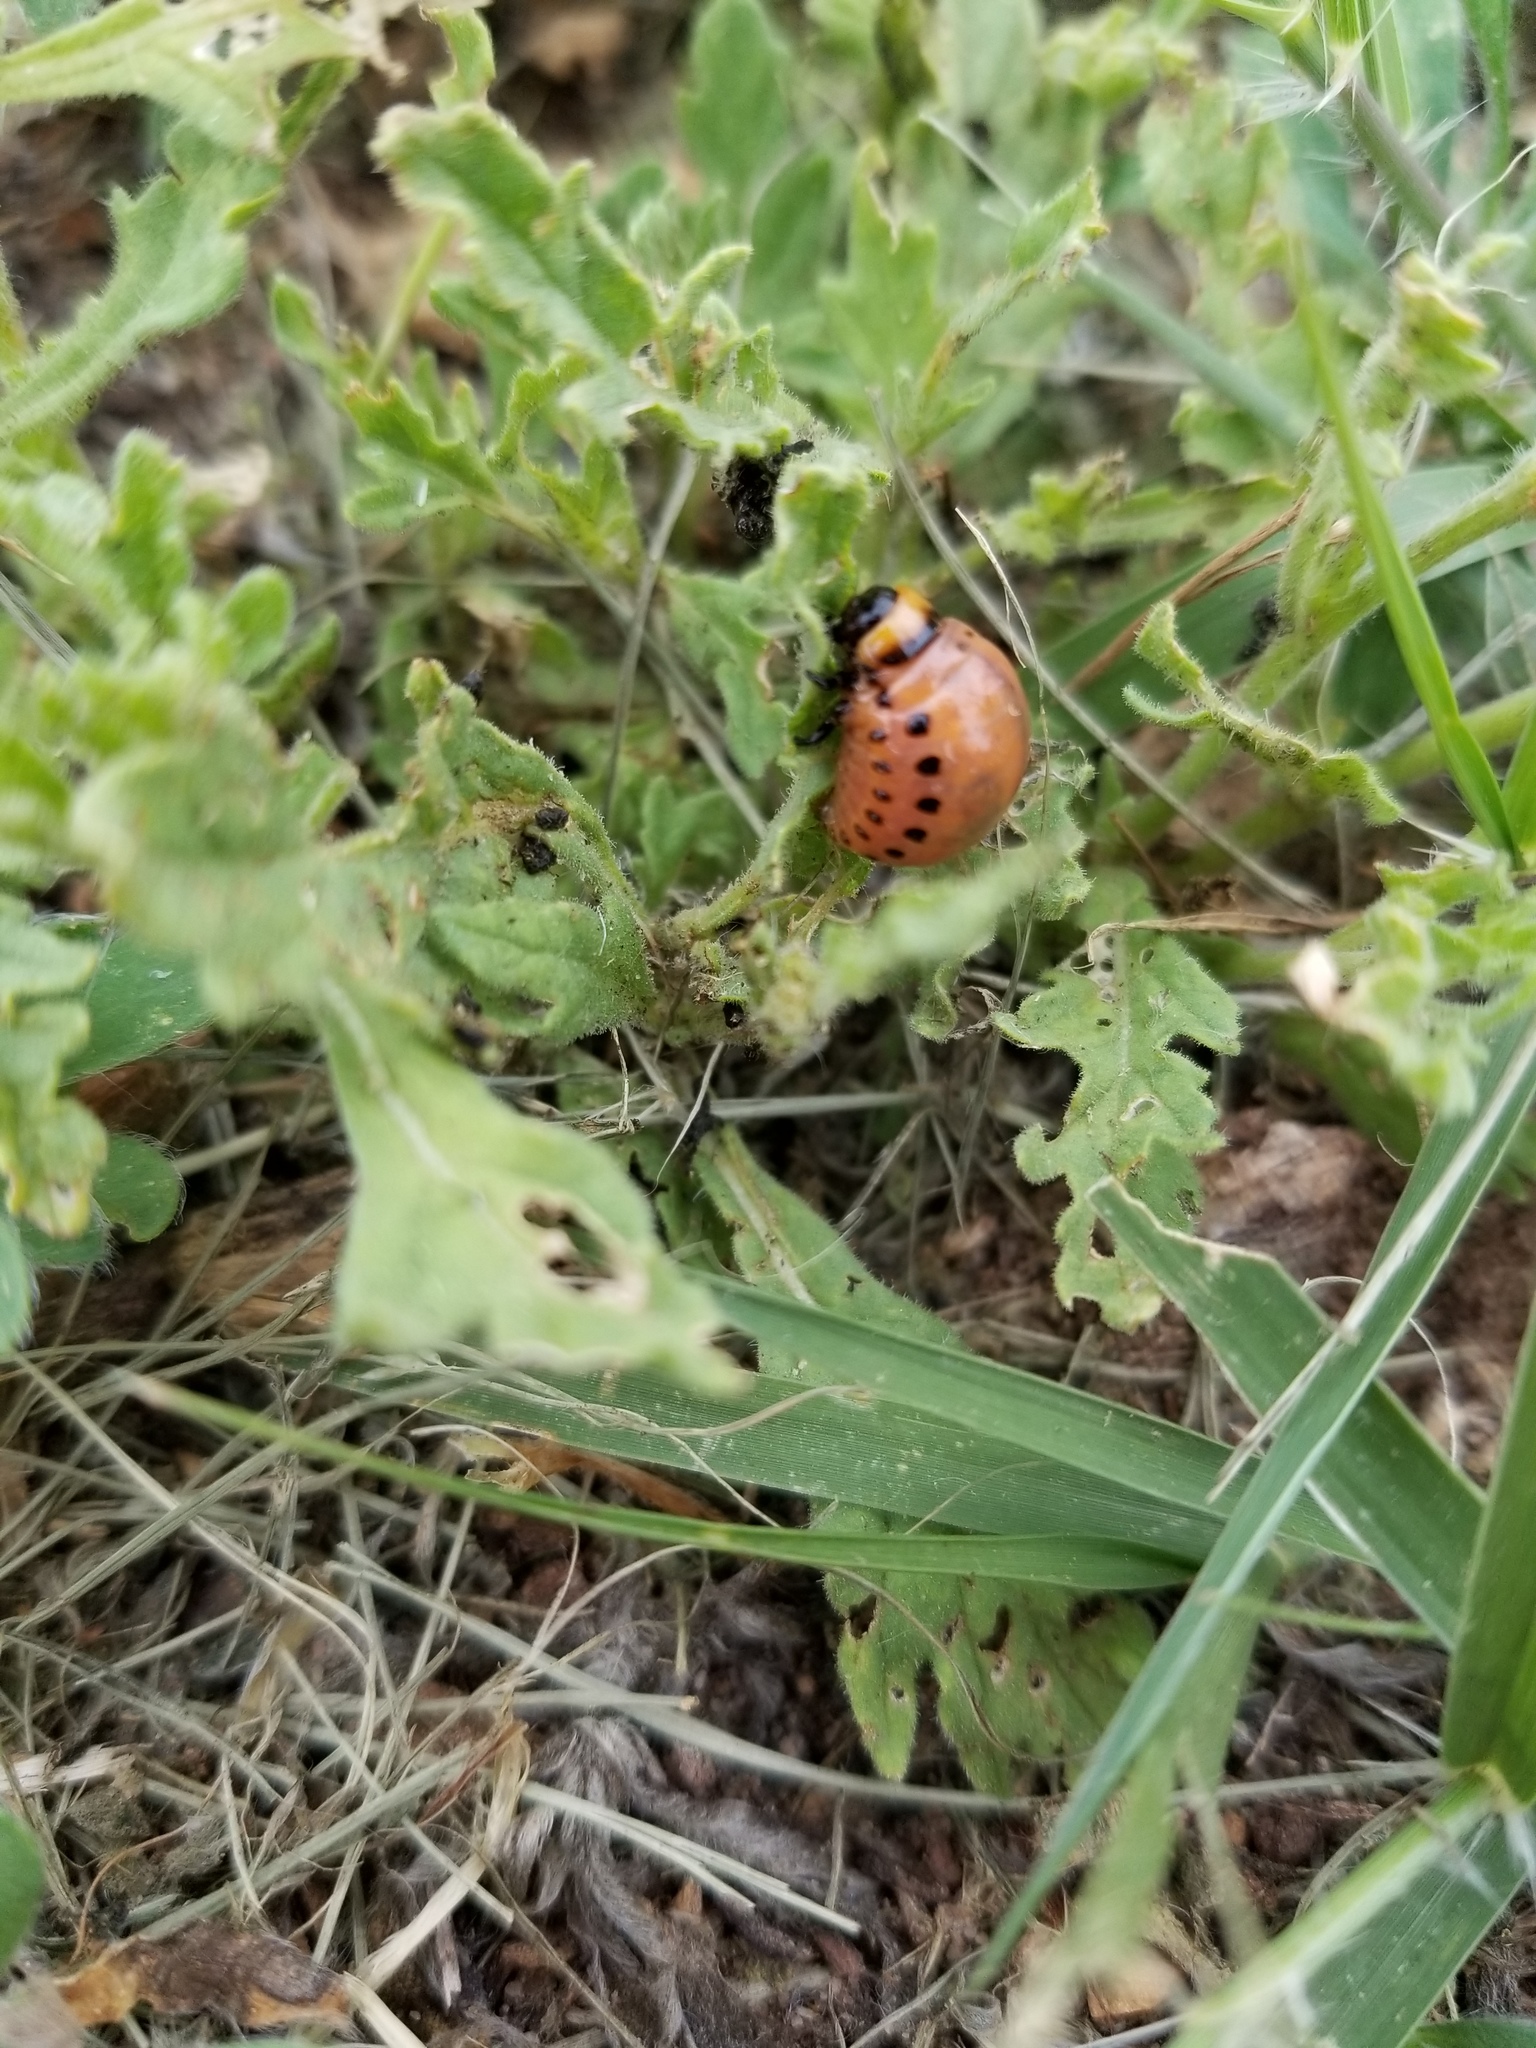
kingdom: Animalia
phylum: Arthropoda
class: Insecta
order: Coleoptera
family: Chrysomelidae
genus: Leptinotarsa
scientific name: Leptinotarsa decemlineata
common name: Colorado potato beetle
